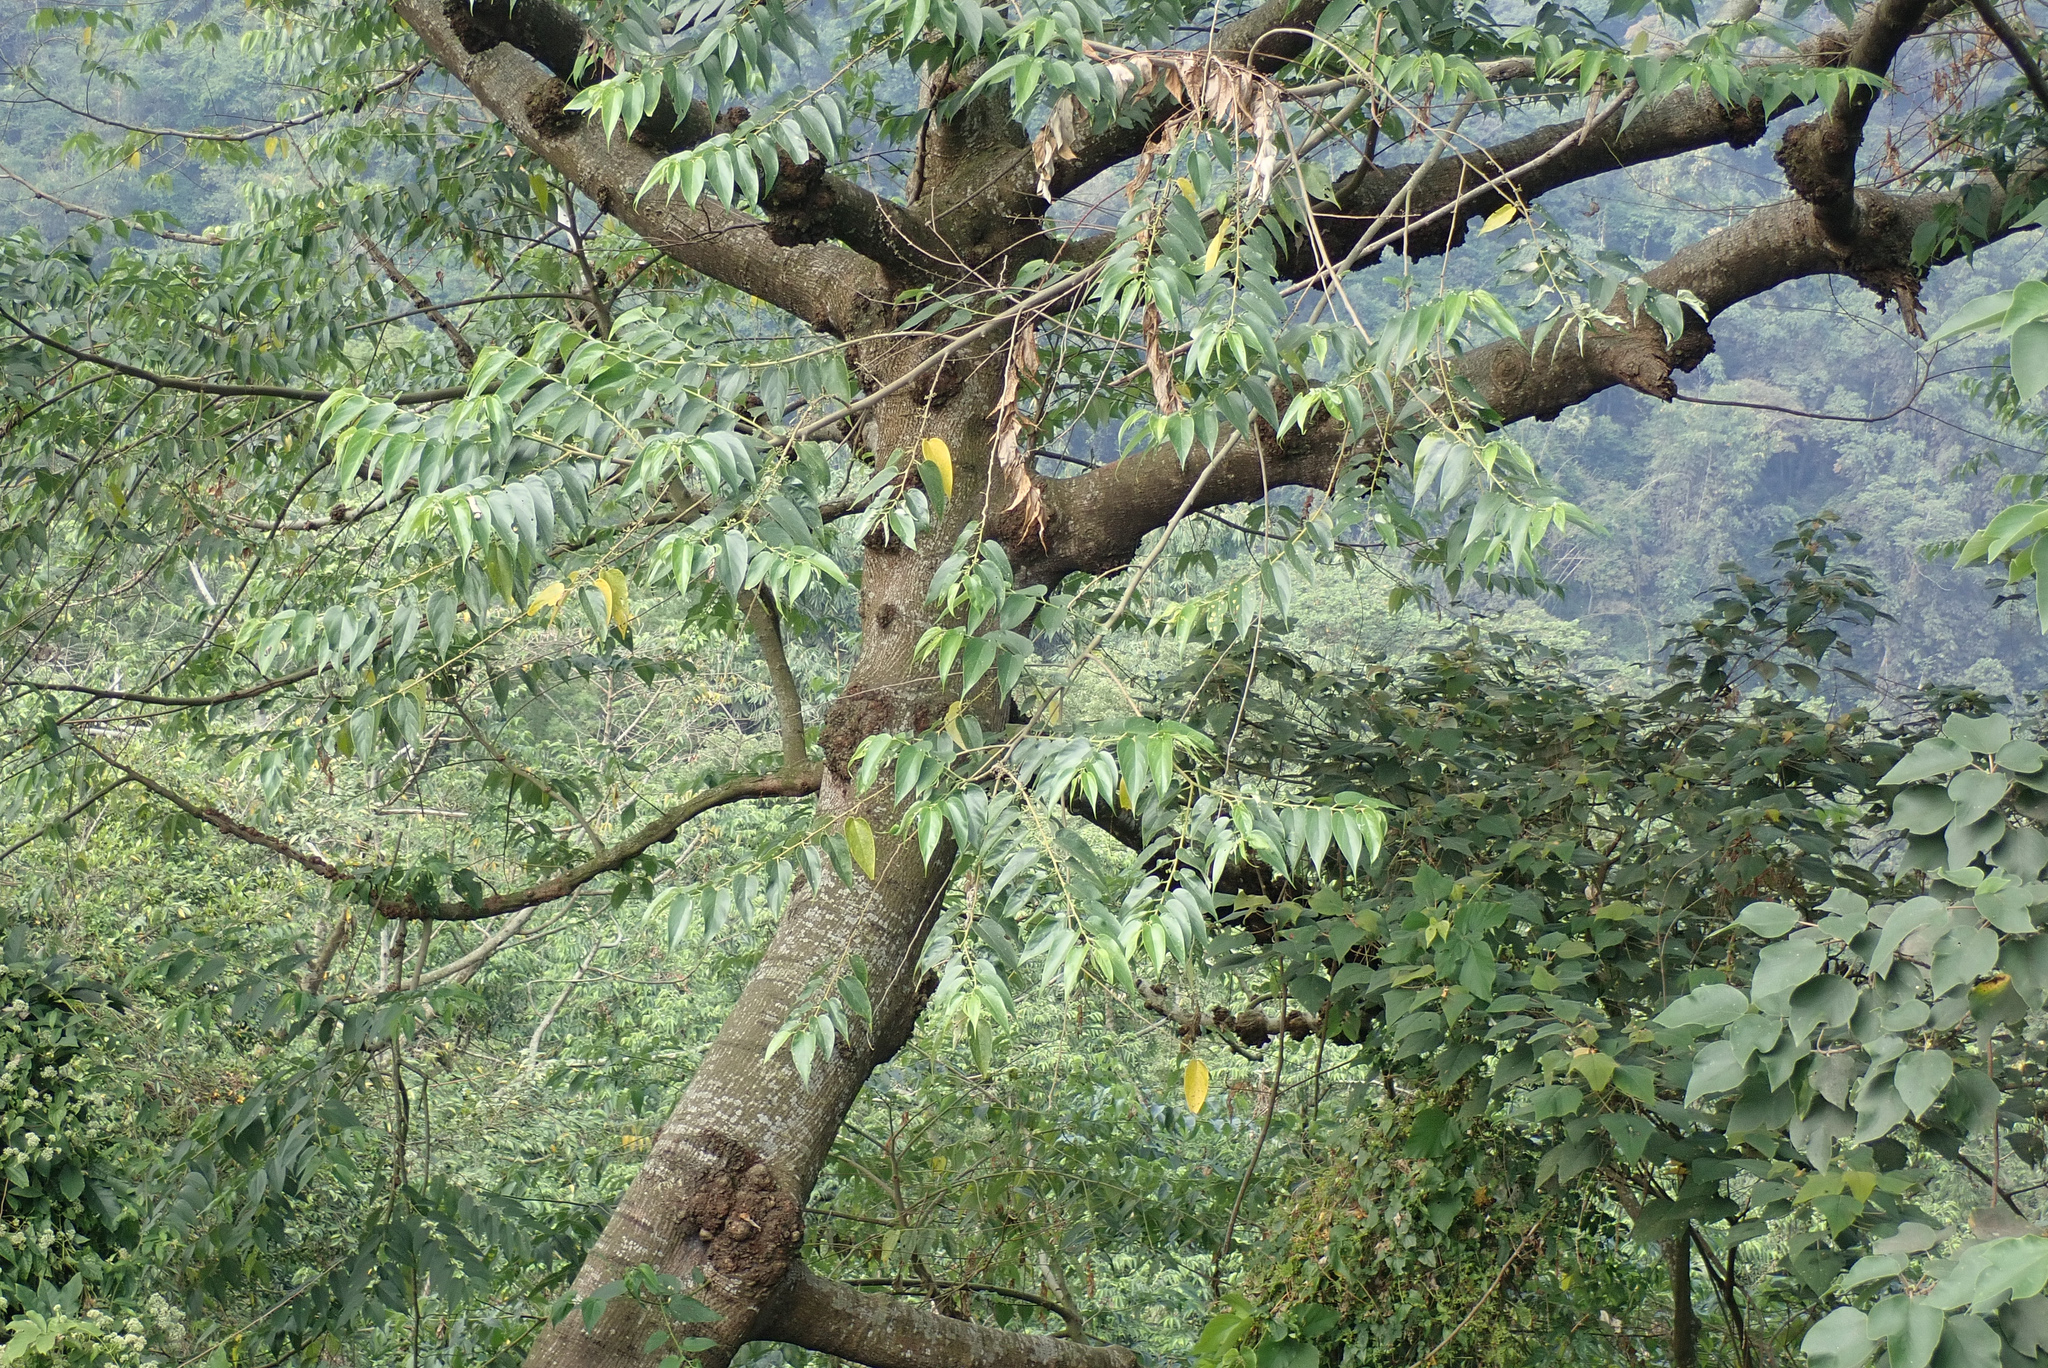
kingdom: Plantae
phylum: Tracheophyta
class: Magnoliopsida
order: Rosales
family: Cannabaceae
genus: Trema
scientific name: Trema orientale
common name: Indian charcoal tree
